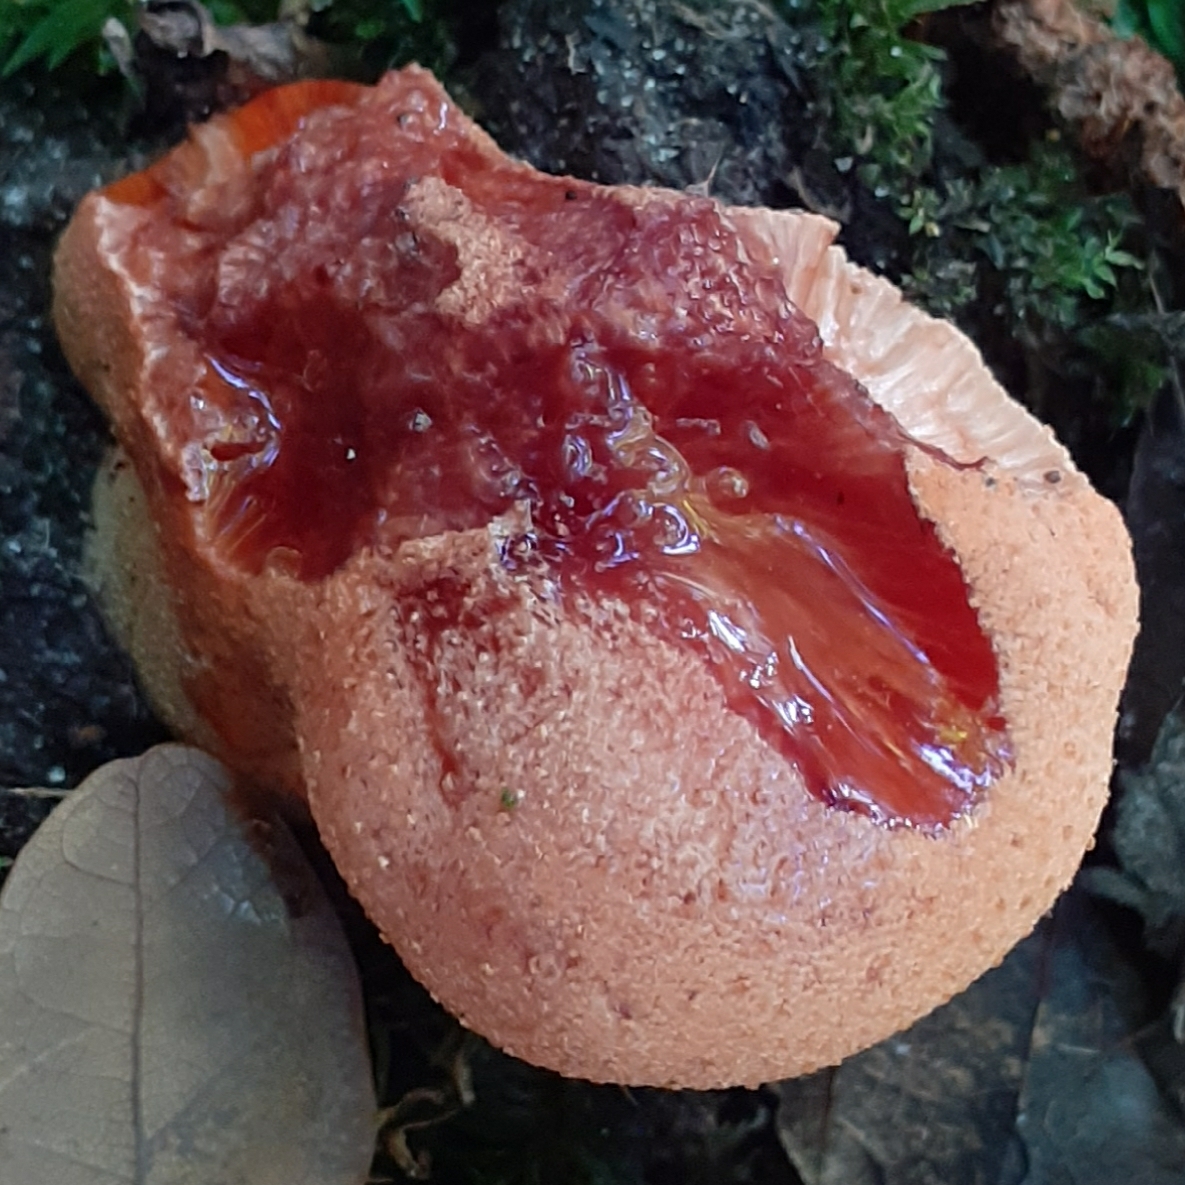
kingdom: Fungi
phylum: Basidiomycota
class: Agaricomycetes
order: Agaricales
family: Fistulinaceae
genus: Fistulina
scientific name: Fistulina hepatica
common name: Beef-steak fungus
